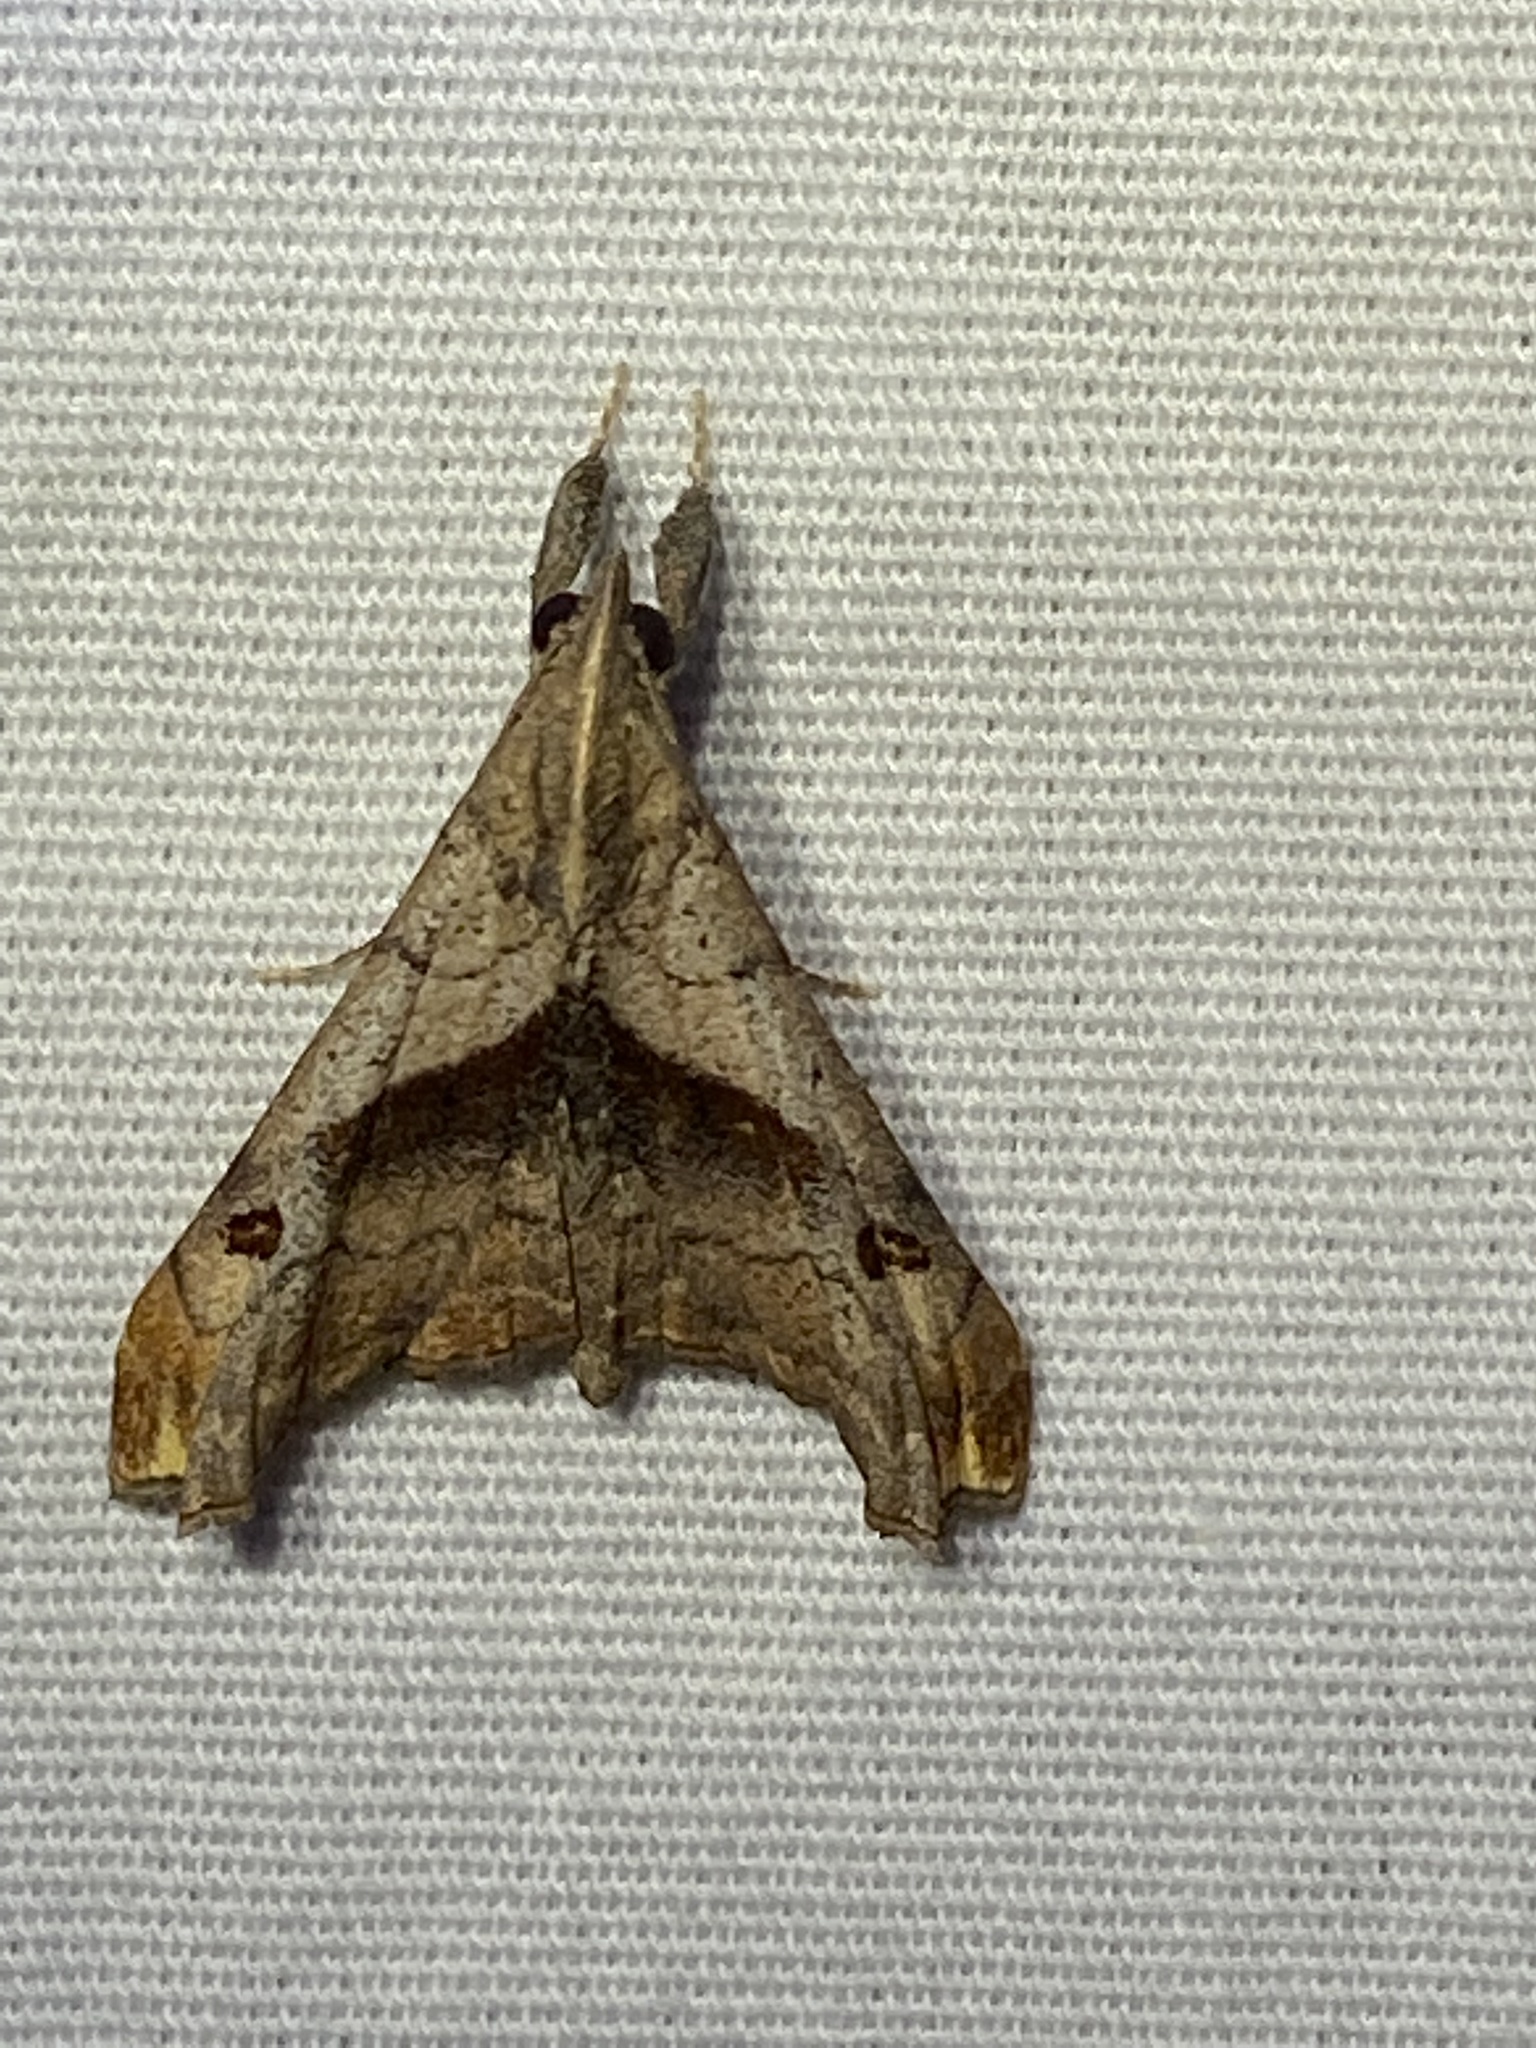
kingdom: Animalia
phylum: Arthropoda
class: Insecta
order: Lepidoptera
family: Erebidae
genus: Palthis
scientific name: Palthis angulalis
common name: Dark-spotted palthis moth
